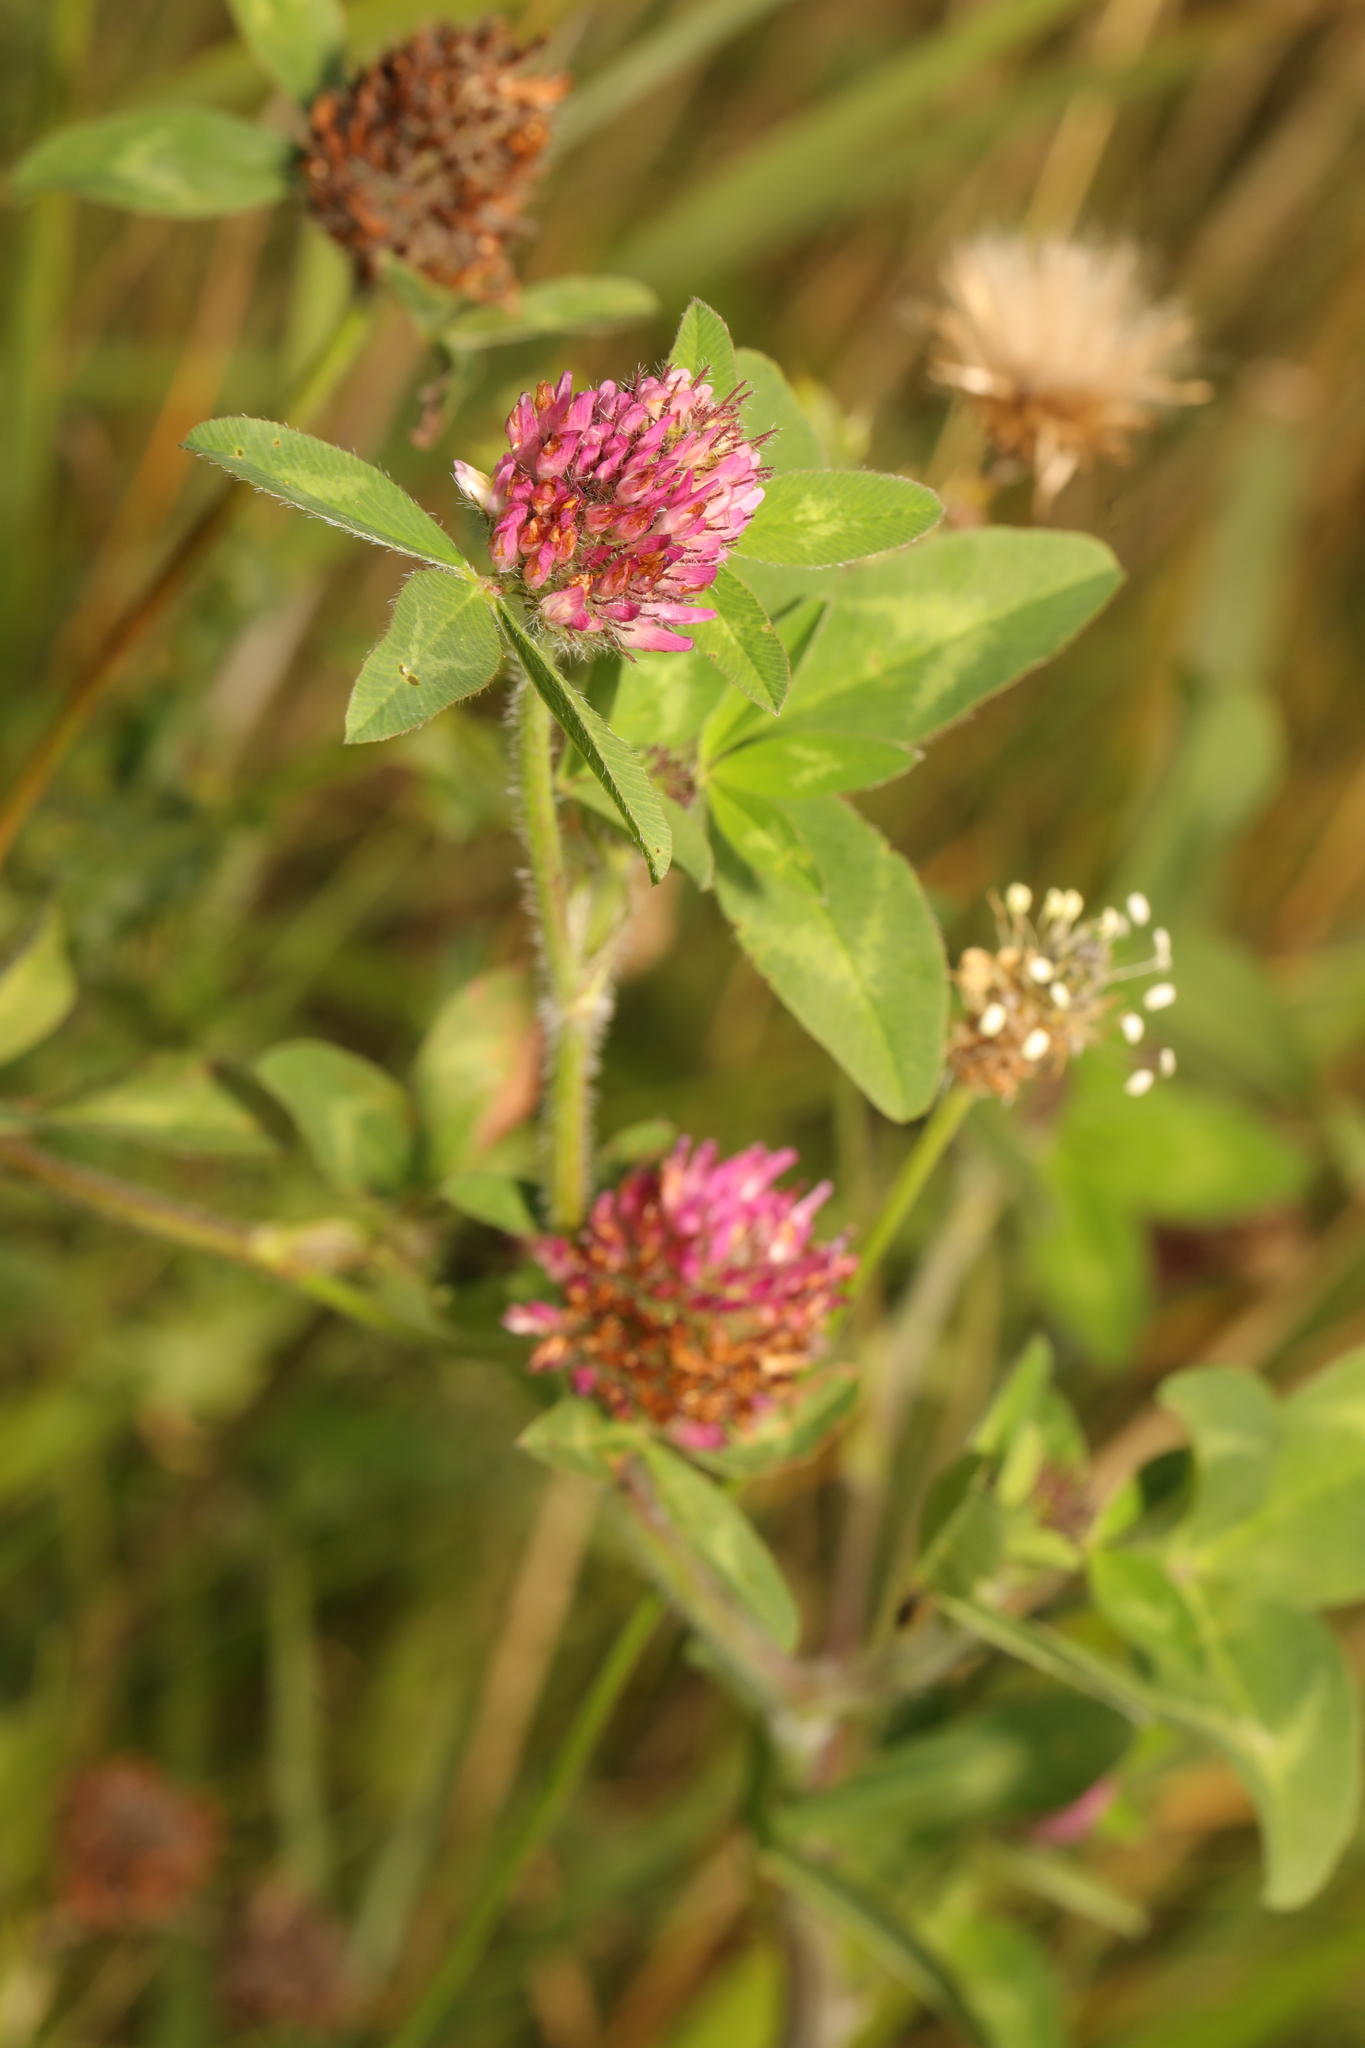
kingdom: Plantae
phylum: Tracheophyta
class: Magnoliopsida
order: Fabales
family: Fabaceae
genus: Trifolium
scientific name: Trifolium pratense
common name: Red clover
